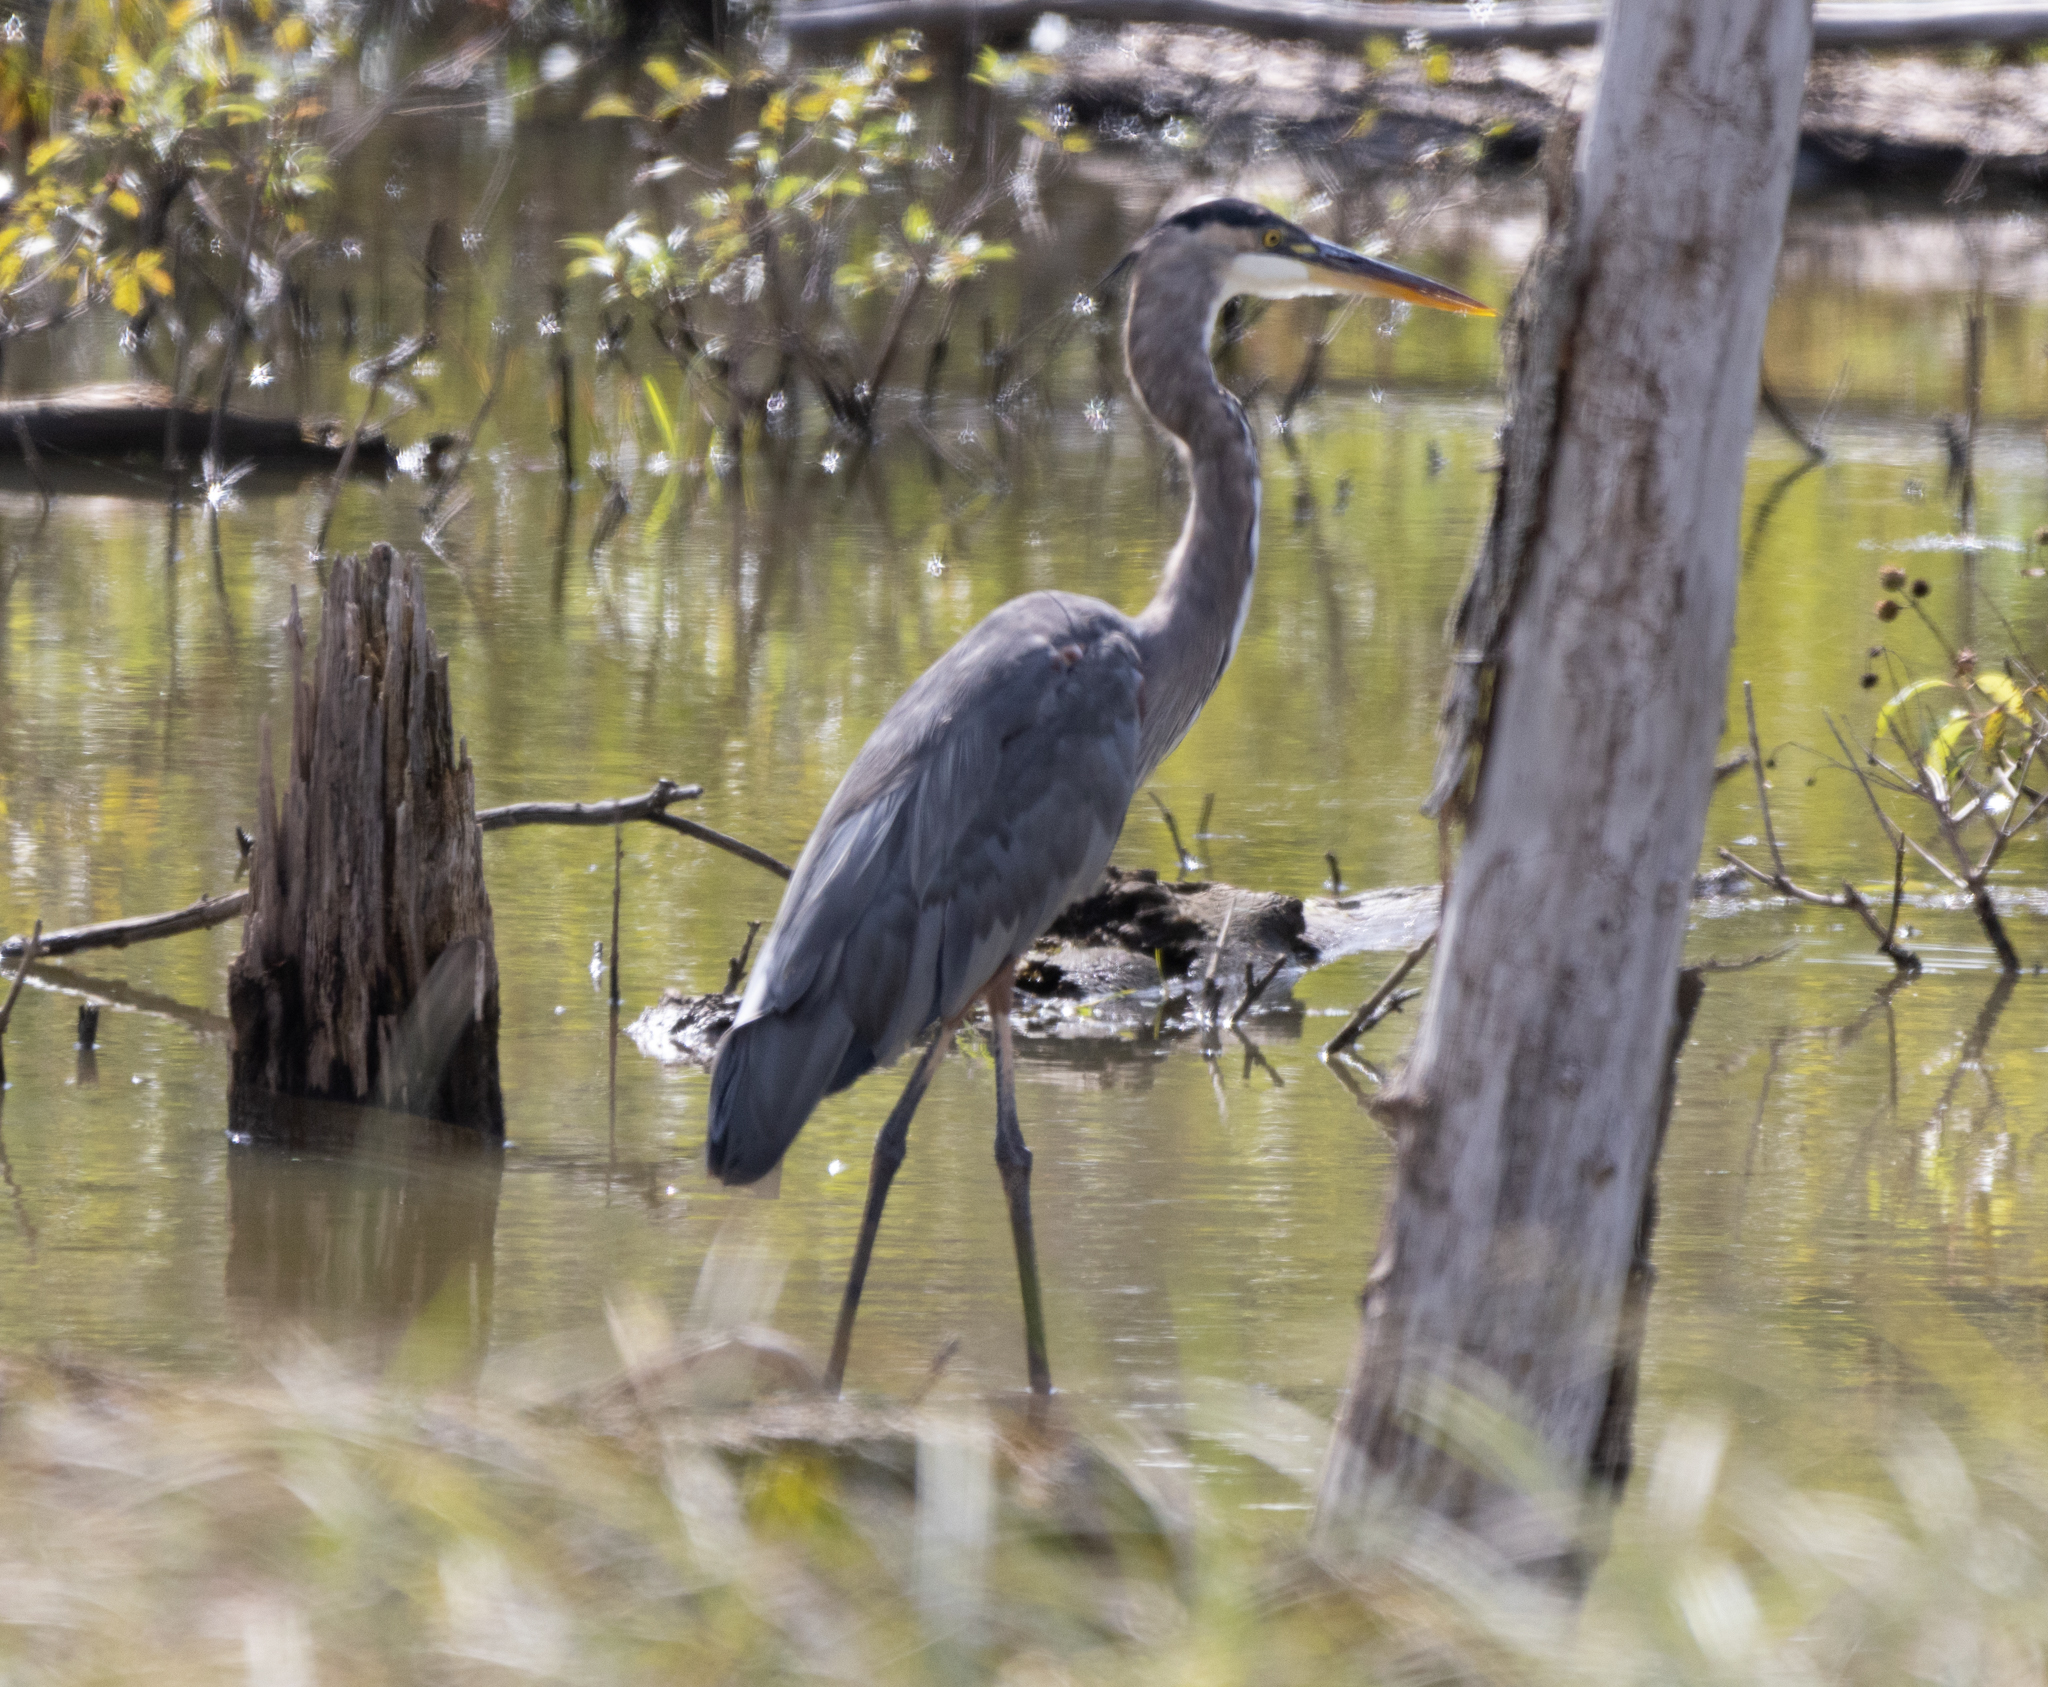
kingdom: Animalia
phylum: Chordata
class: Aves
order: Pelecaniformes
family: Ardeidae
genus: Ardea
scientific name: Ardea herodias
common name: Great blue heron
